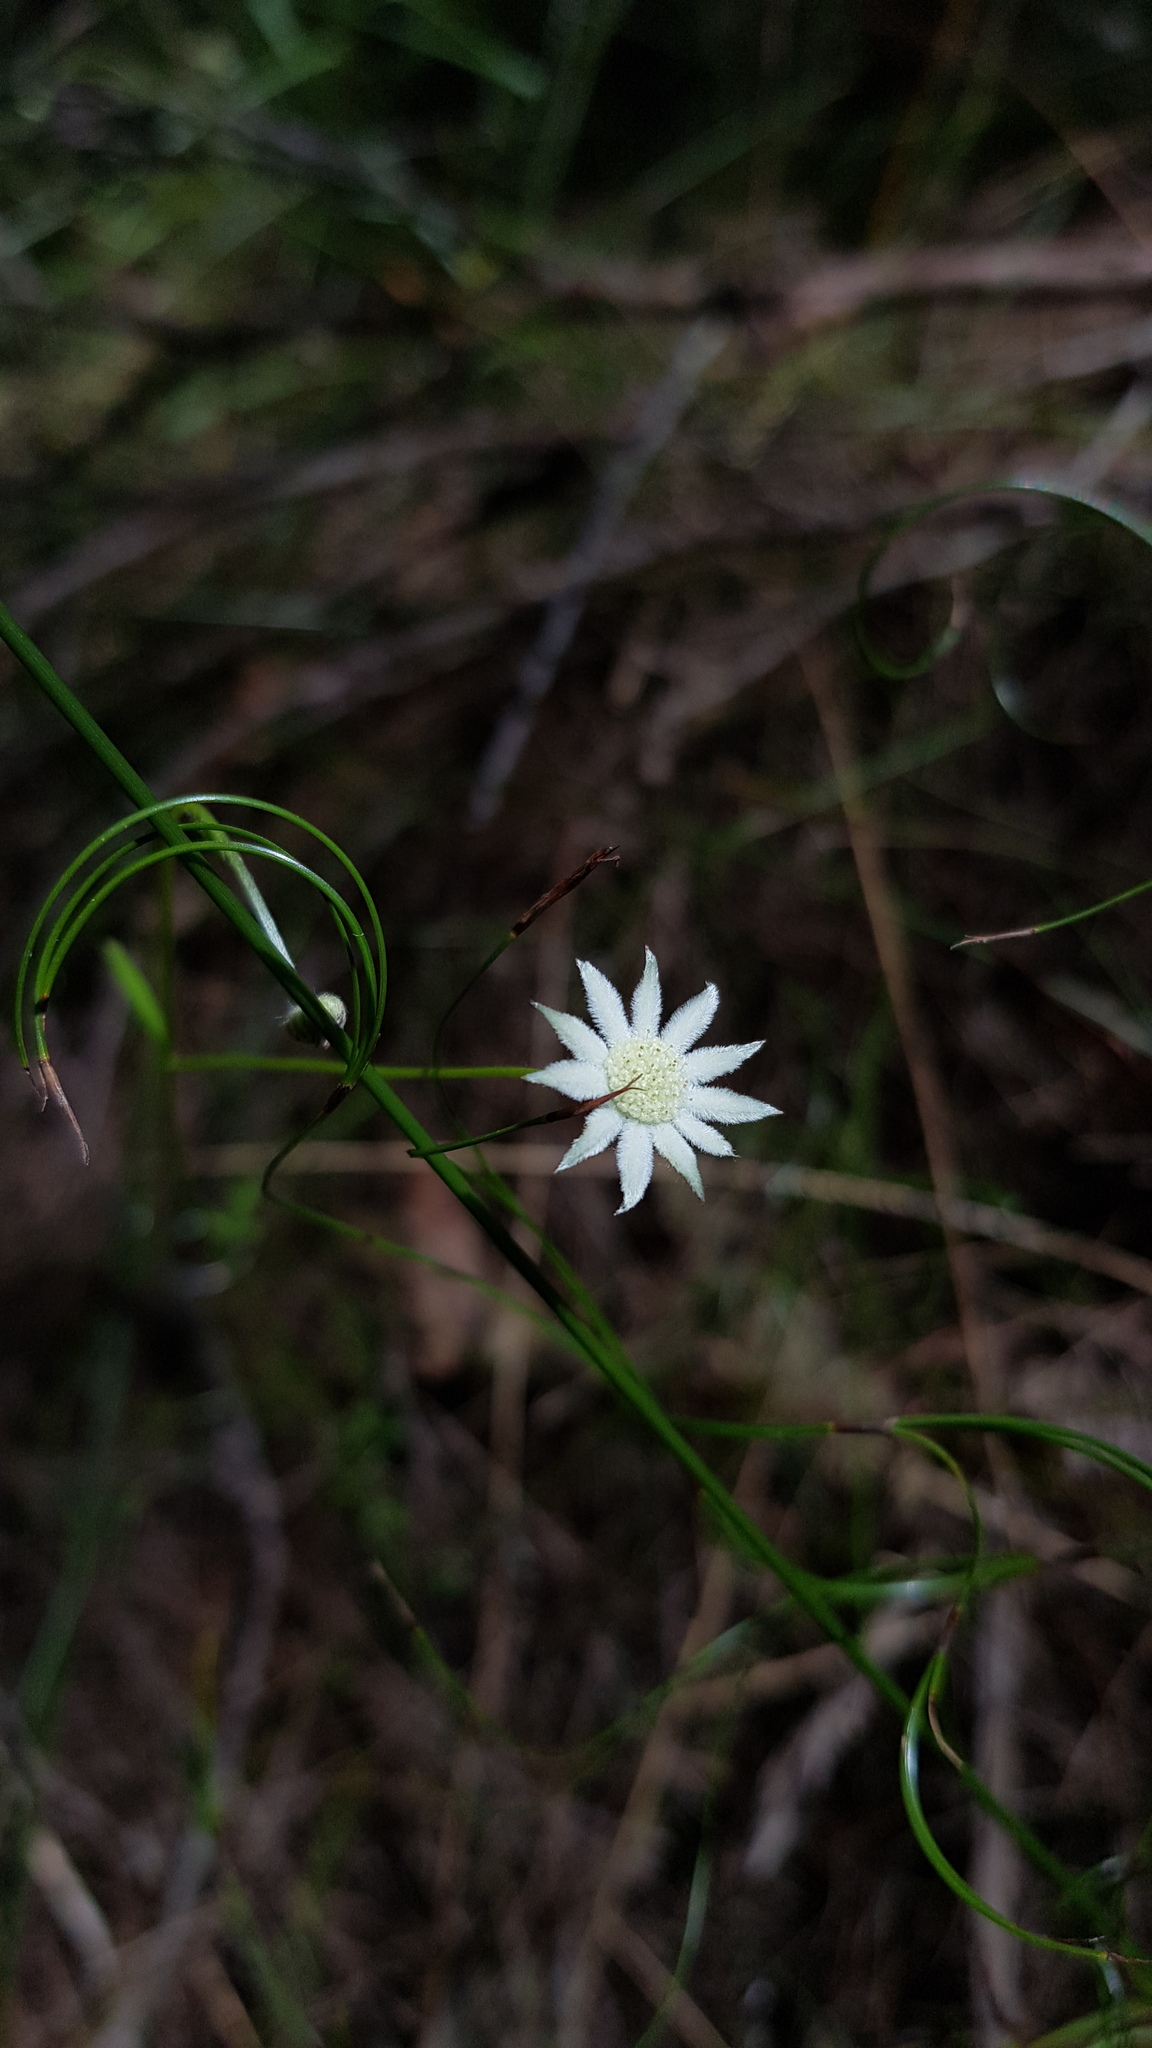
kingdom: Plantae
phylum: Tracheophyta
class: Magnoliopsida
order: Apiales
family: Apiaceae
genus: Actinotus
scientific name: Actinotus minor
